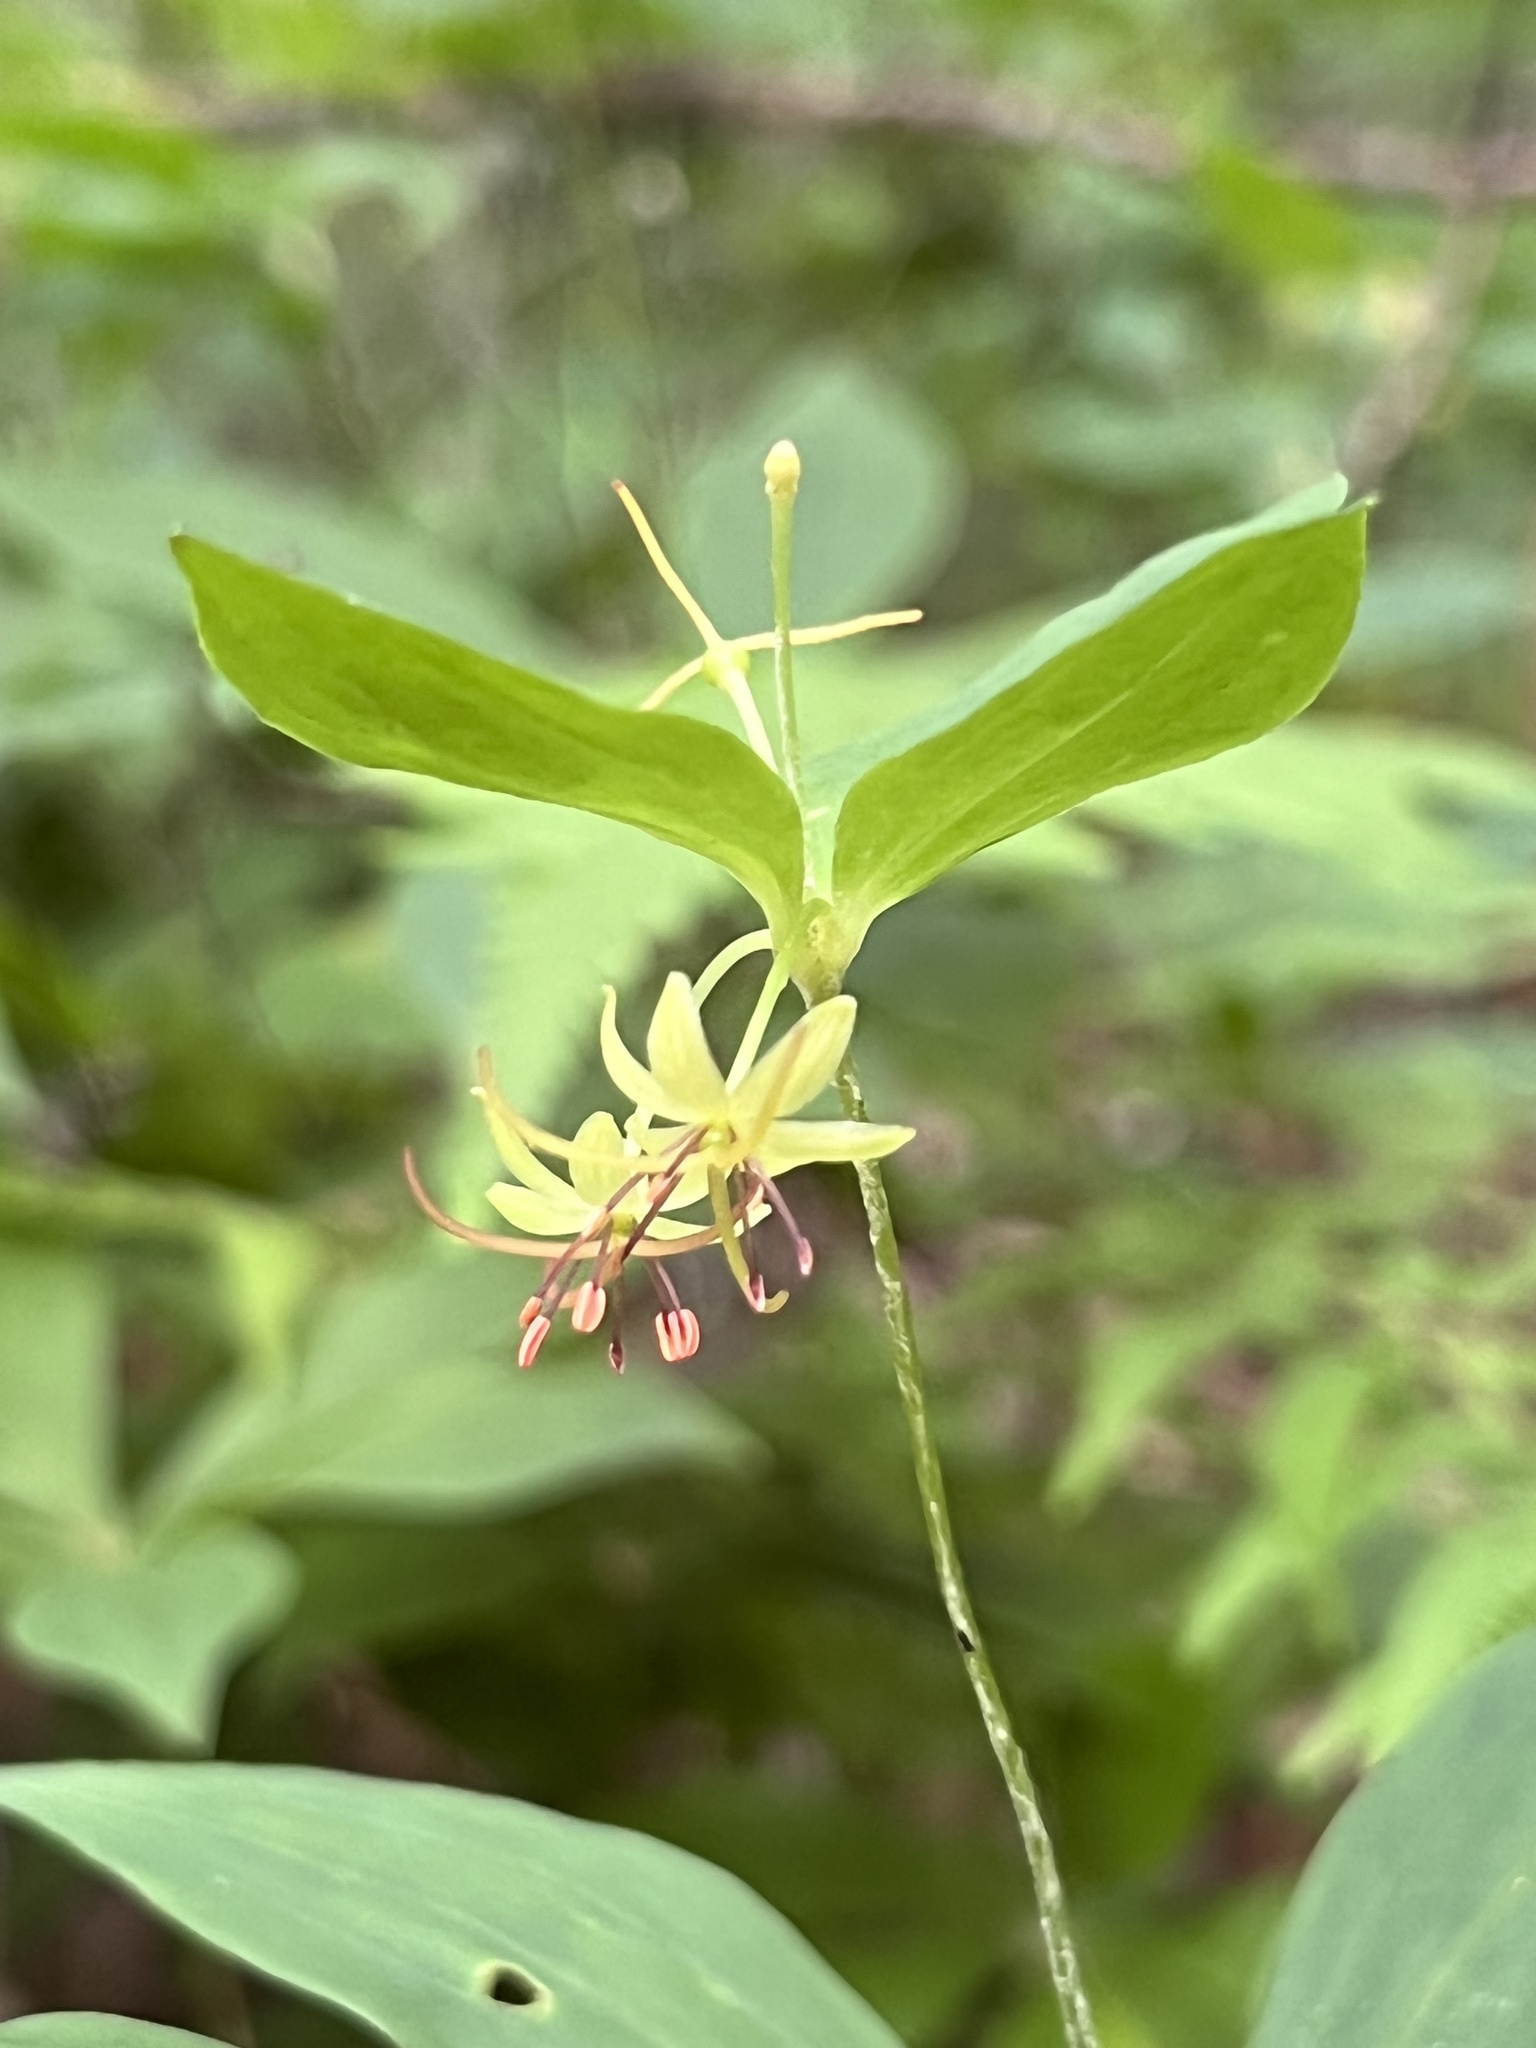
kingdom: Plantae
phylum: Tracheophyta
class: Liliopsida
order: Liliales
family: Liliaceae
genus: Medeola
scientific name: Medeola virginiana
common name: Indian cucumber-root
